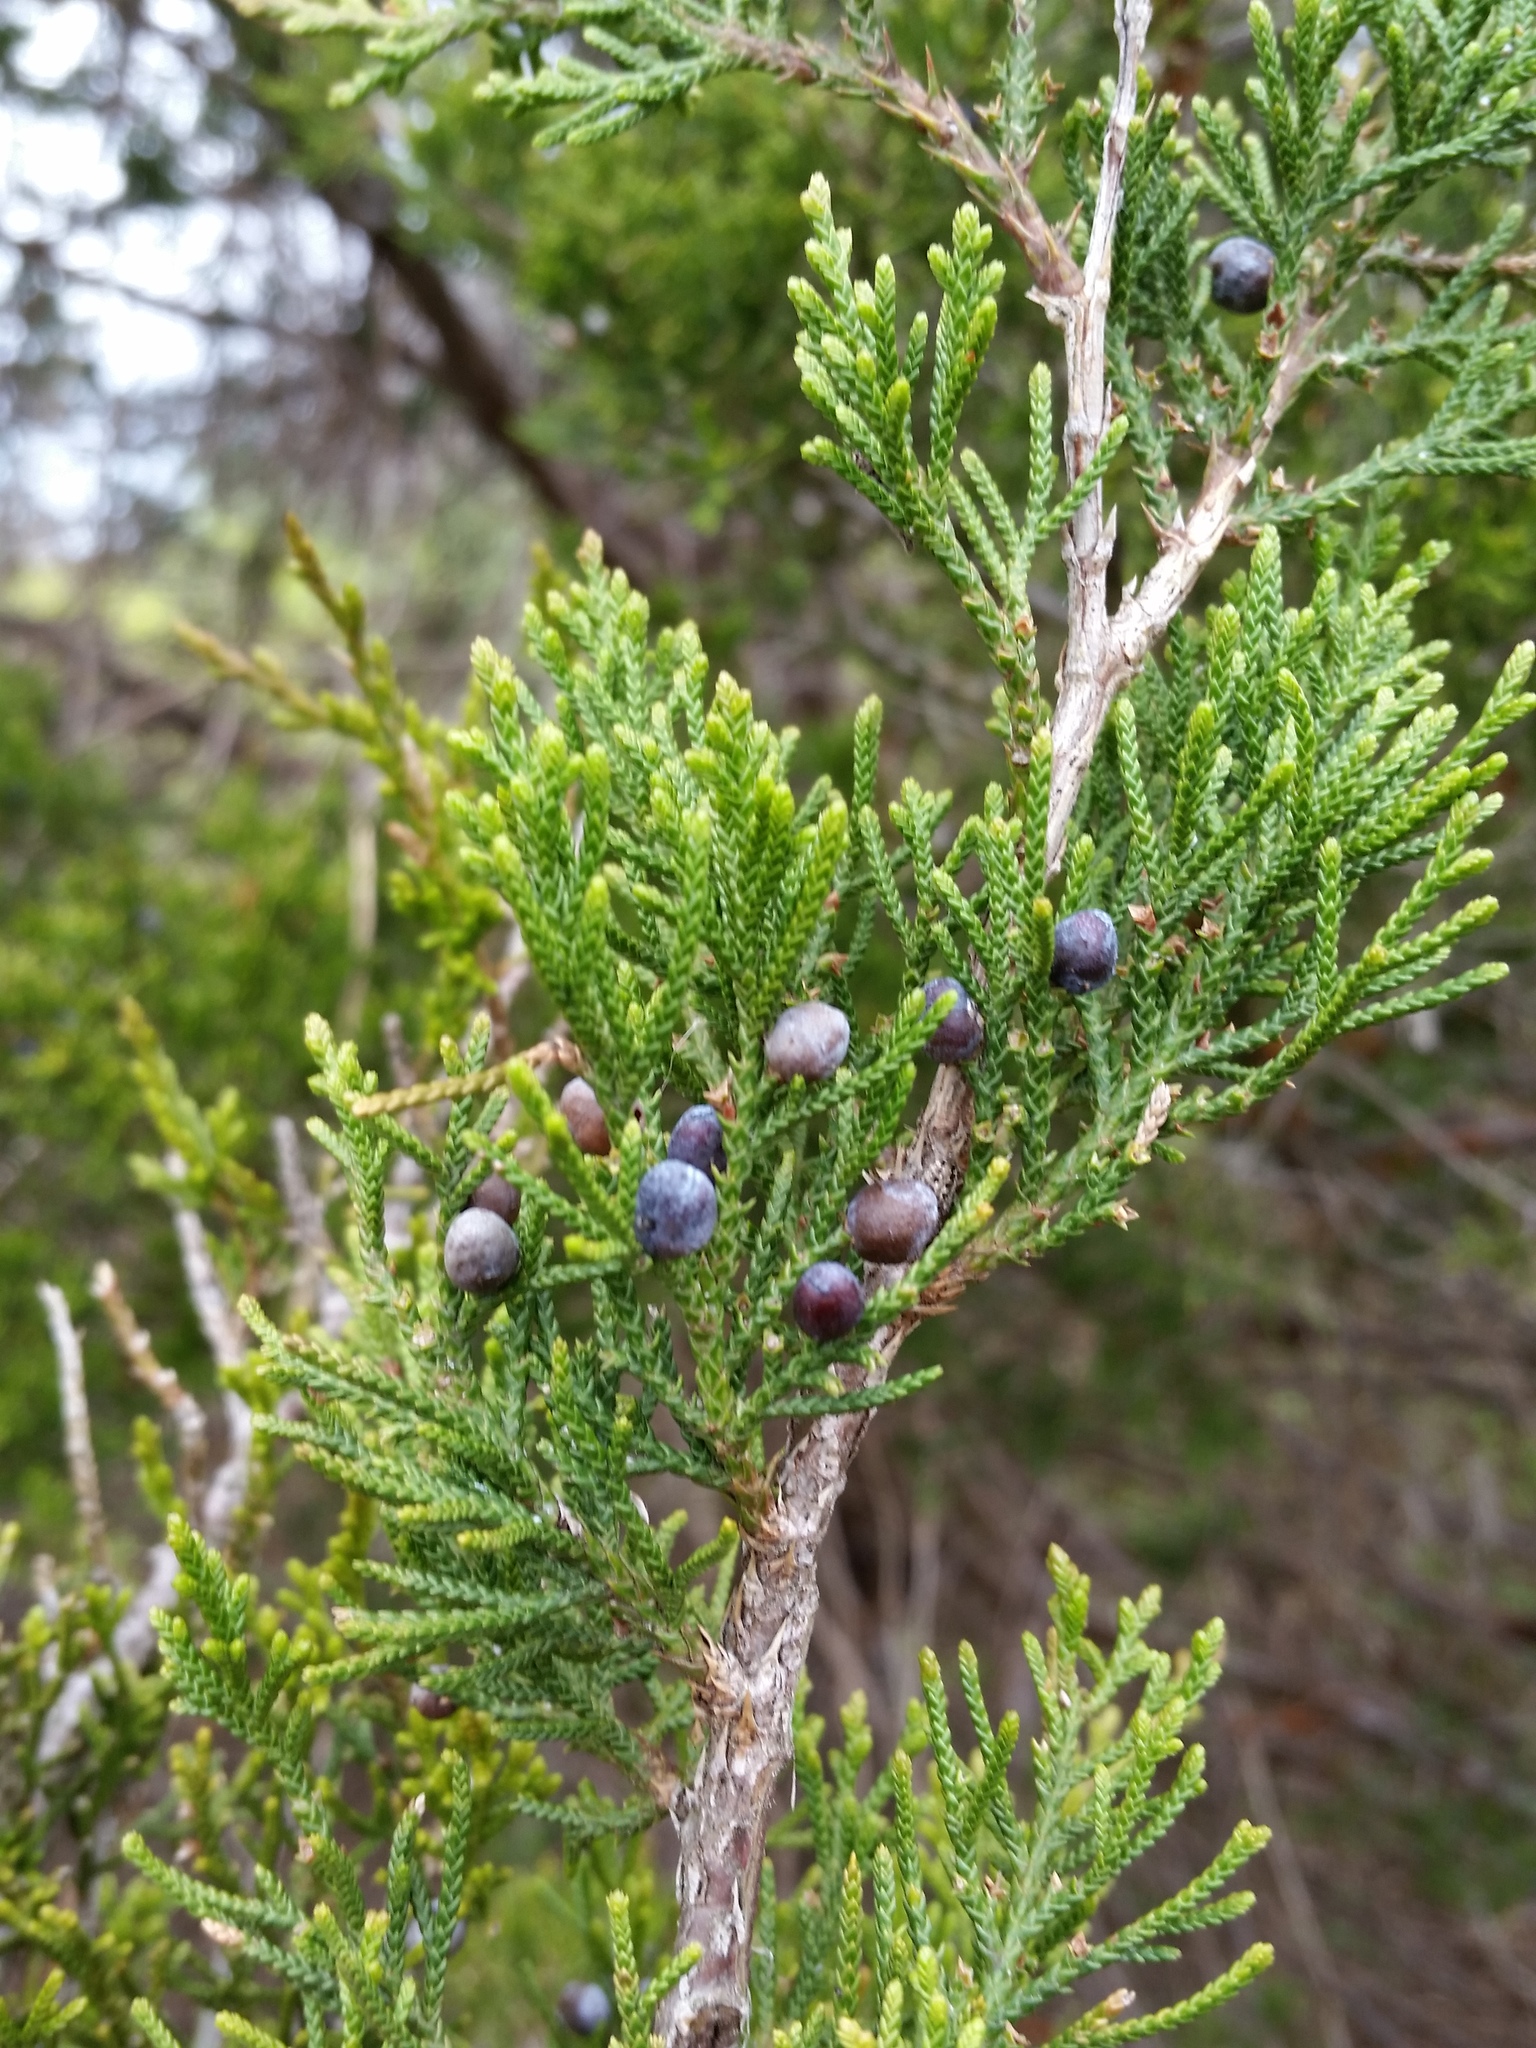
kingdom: Plantae
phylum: Tracheophyta
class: Pinopsida
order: Pinales
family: Cupressaceae
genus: Juniperus
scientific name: Juniperus virginiana
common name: Red juniper
